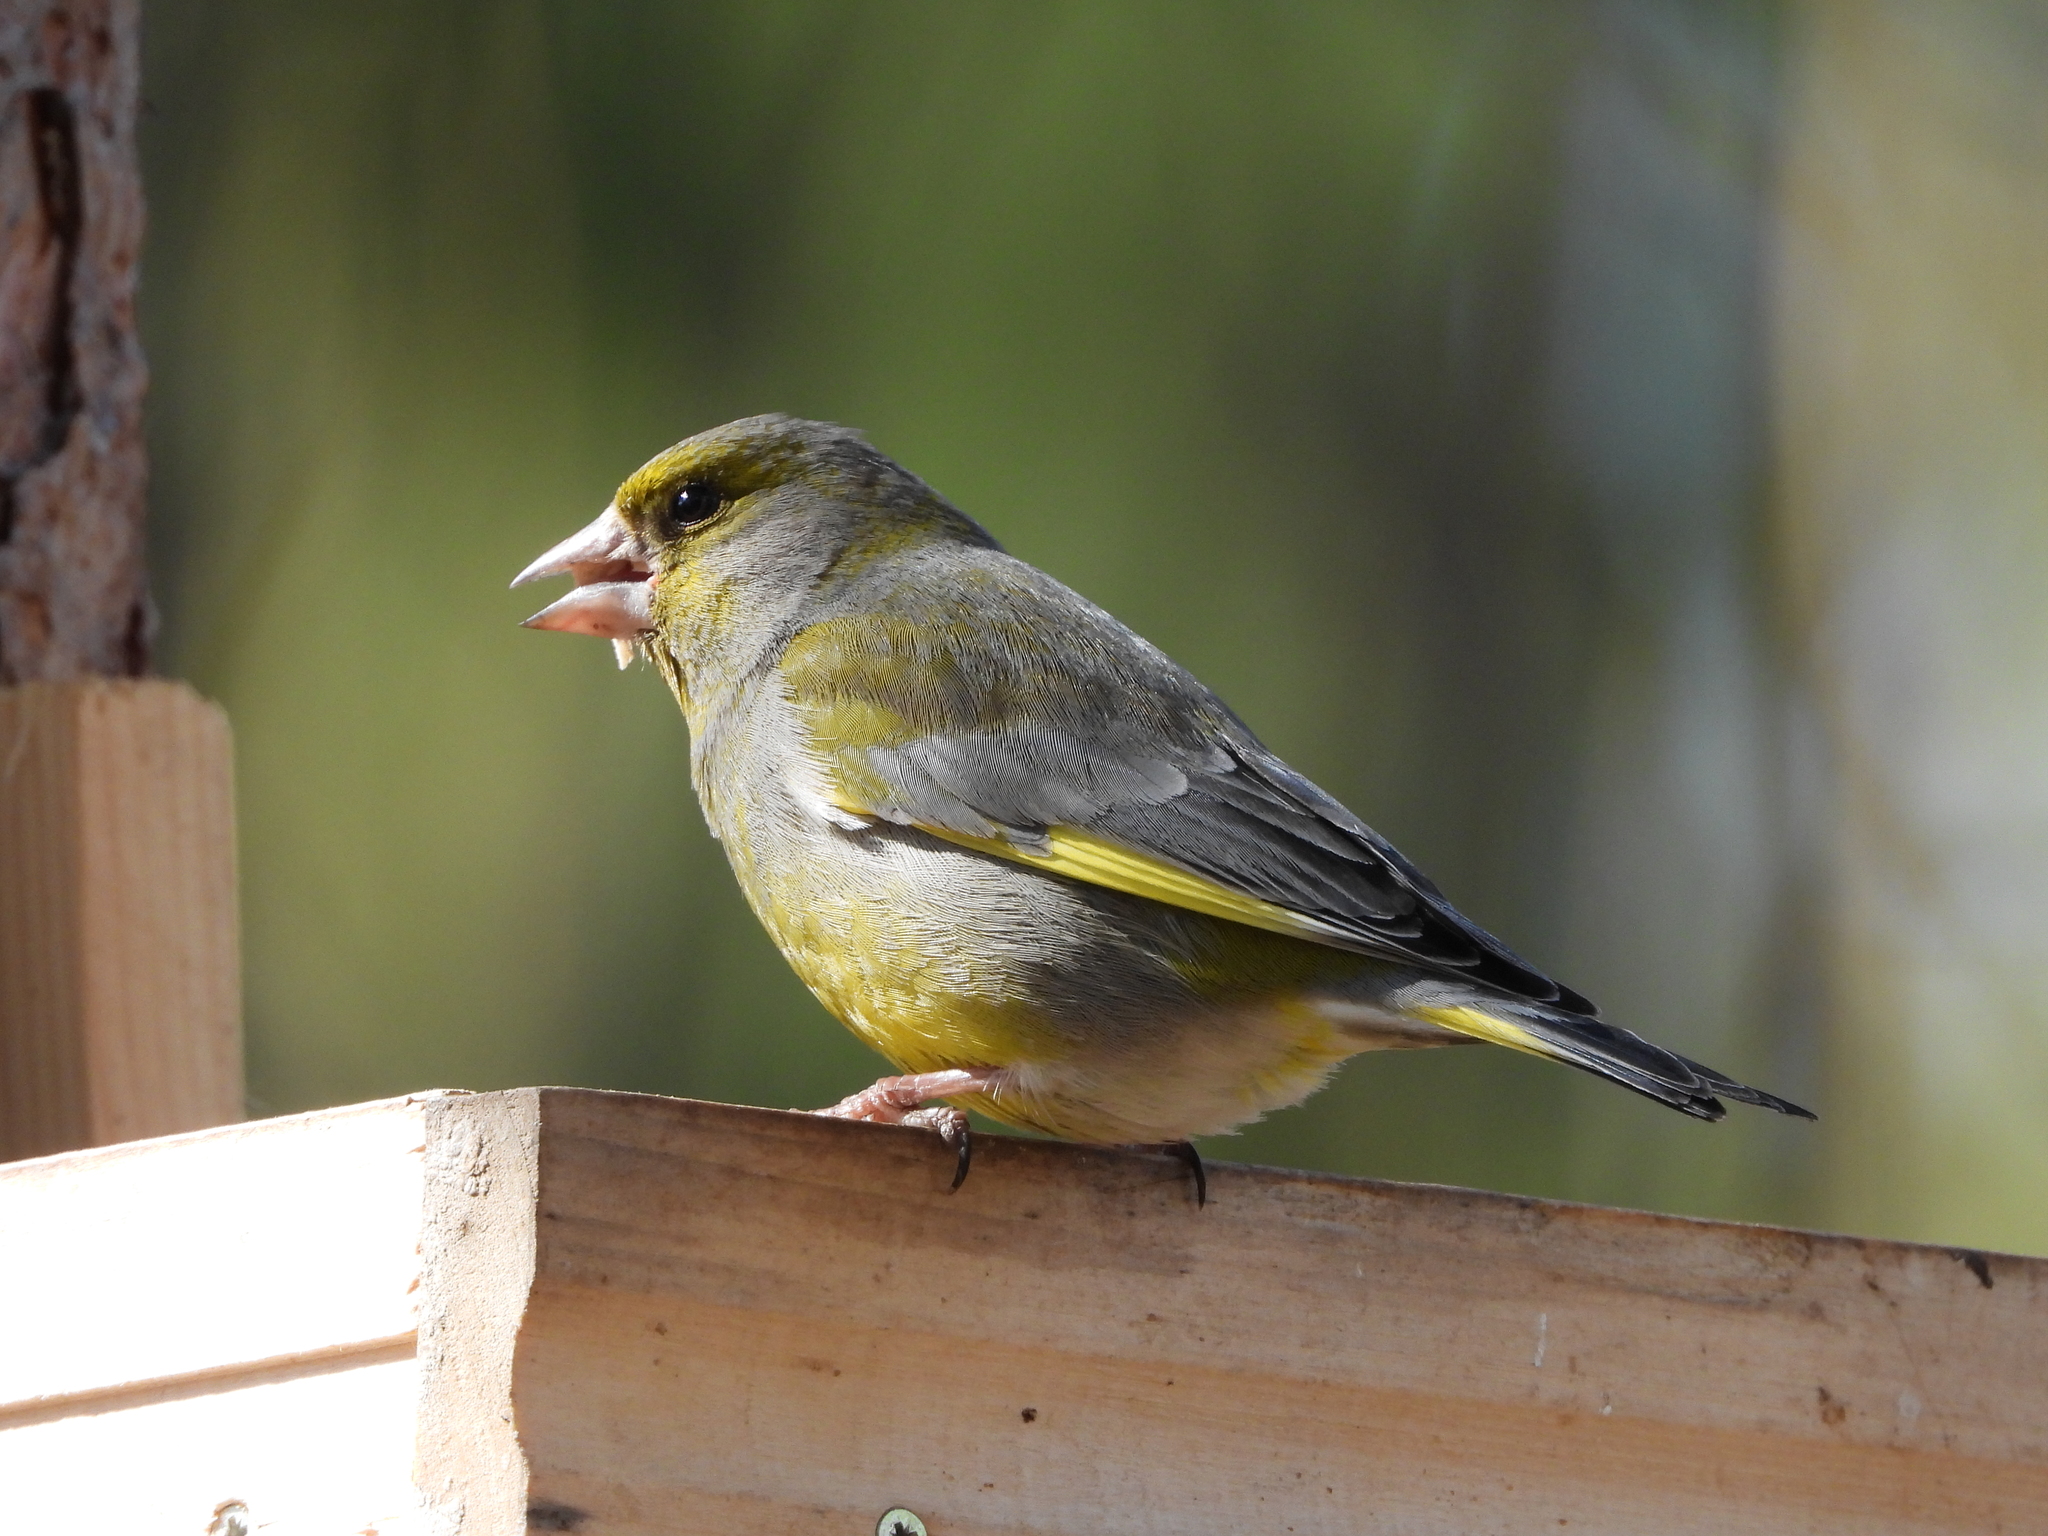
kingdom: Plantae
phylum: Tracheophyta
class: Liliopsida
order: Poales
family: Poaceae
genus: Chloris
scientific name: Chloris chloris
